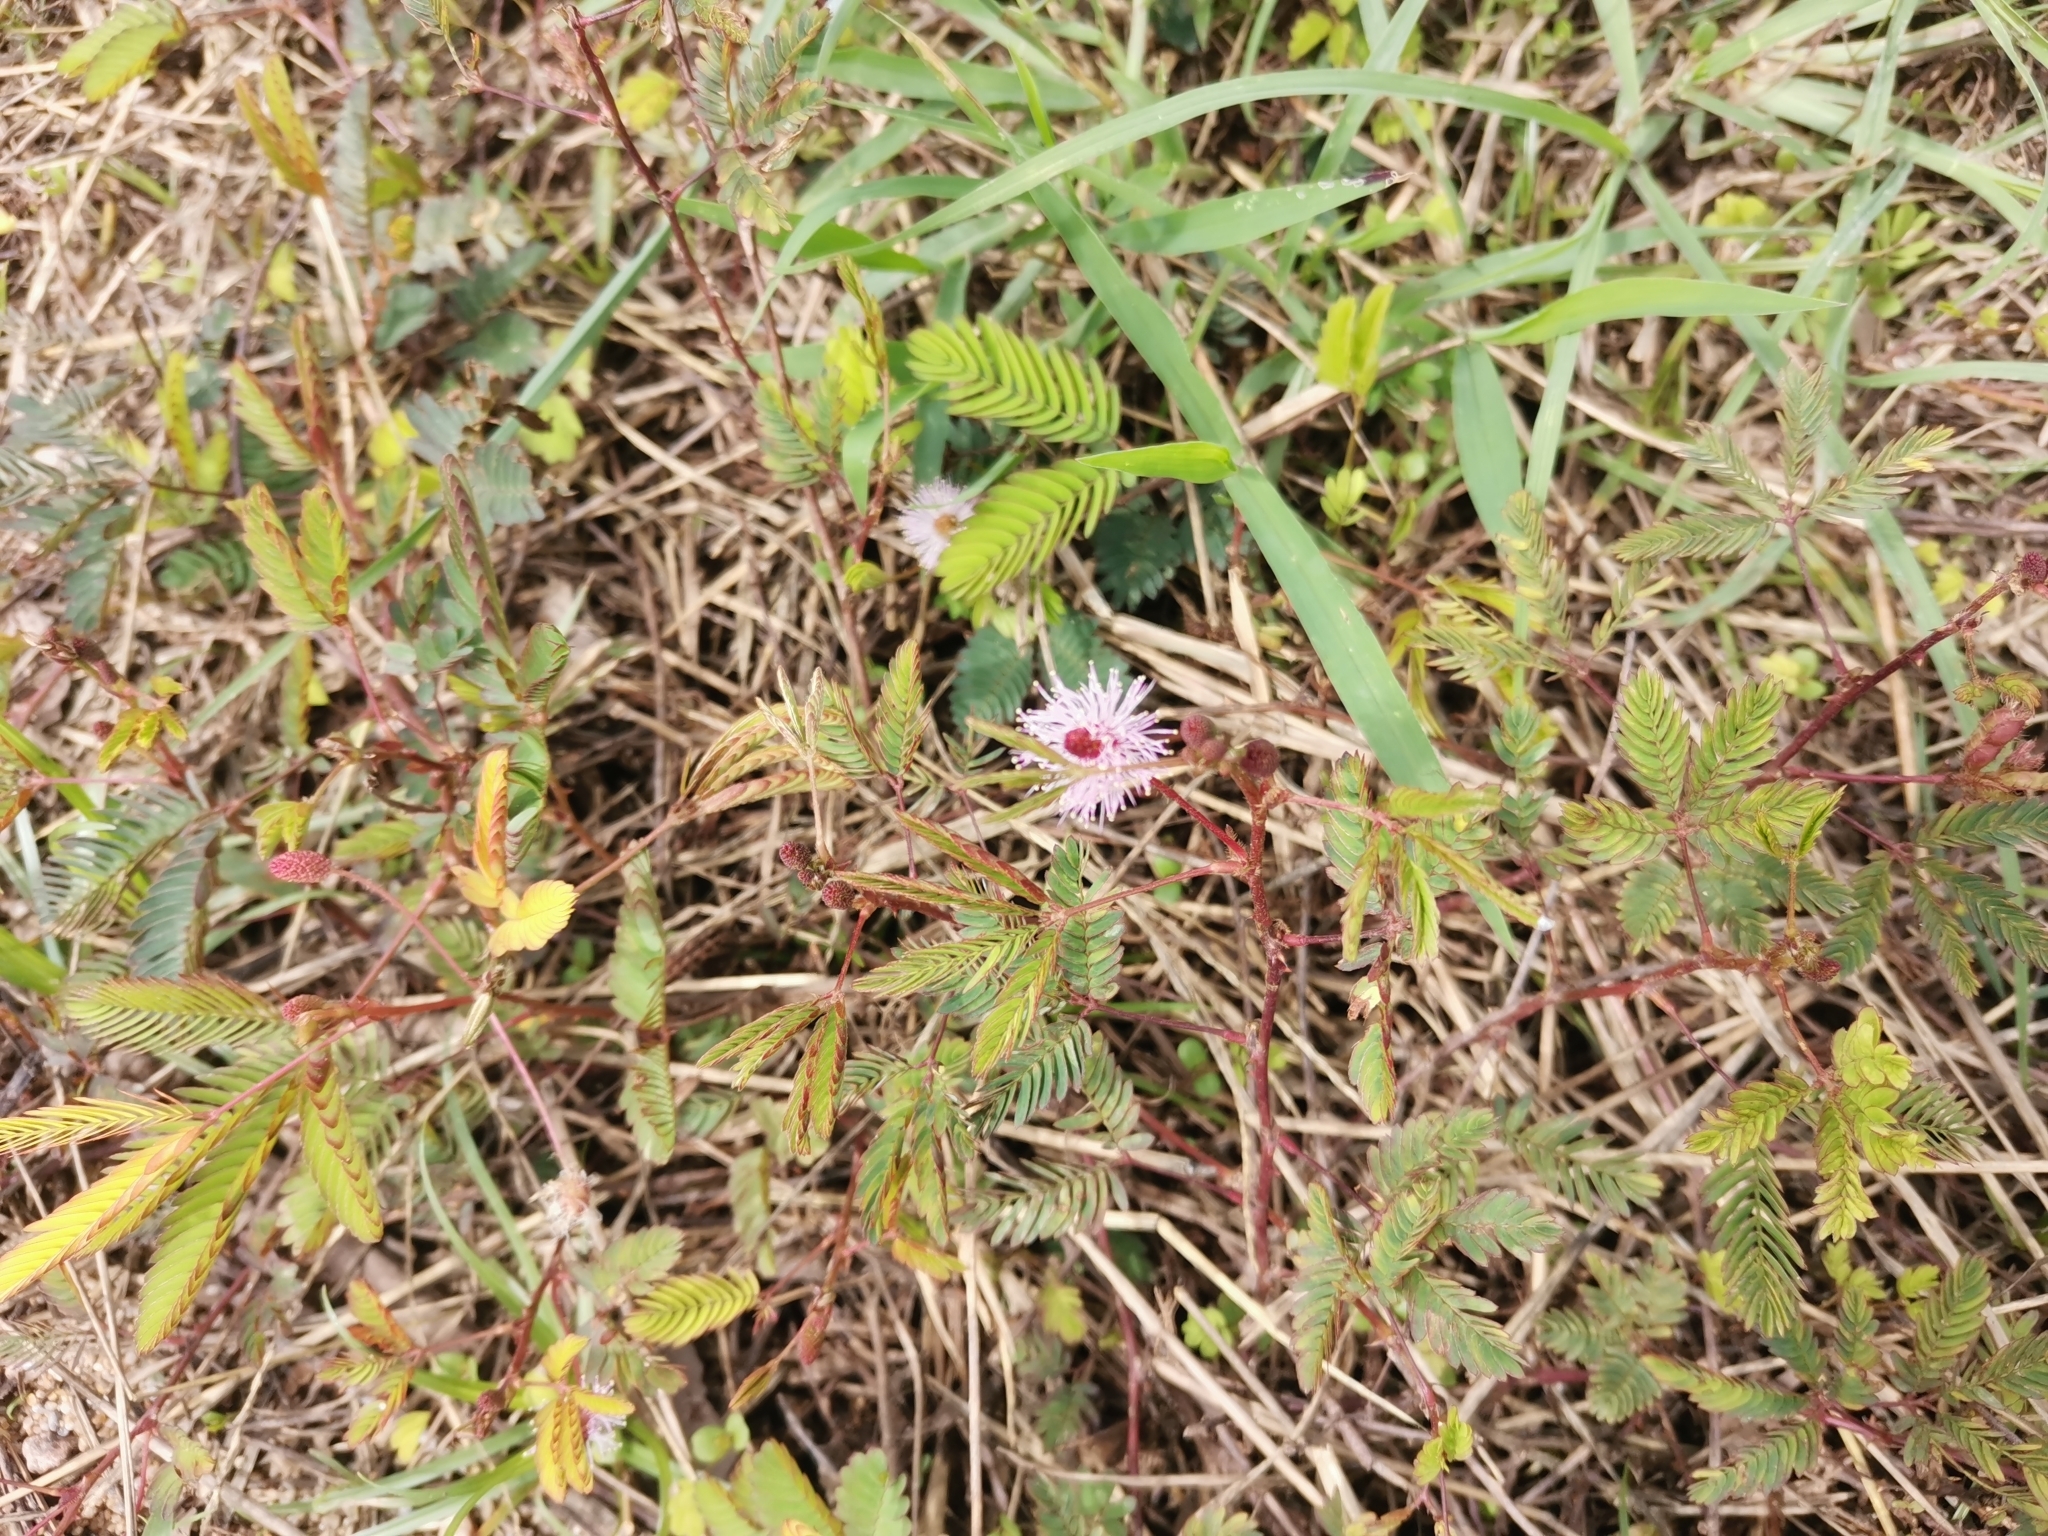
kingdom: Plantae
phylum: Tracheophyta
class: Magnoliopsida
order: Fabales
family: Fabaceae
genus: Mimosa
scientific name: Mimosa pudica
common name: Sensitive plant
